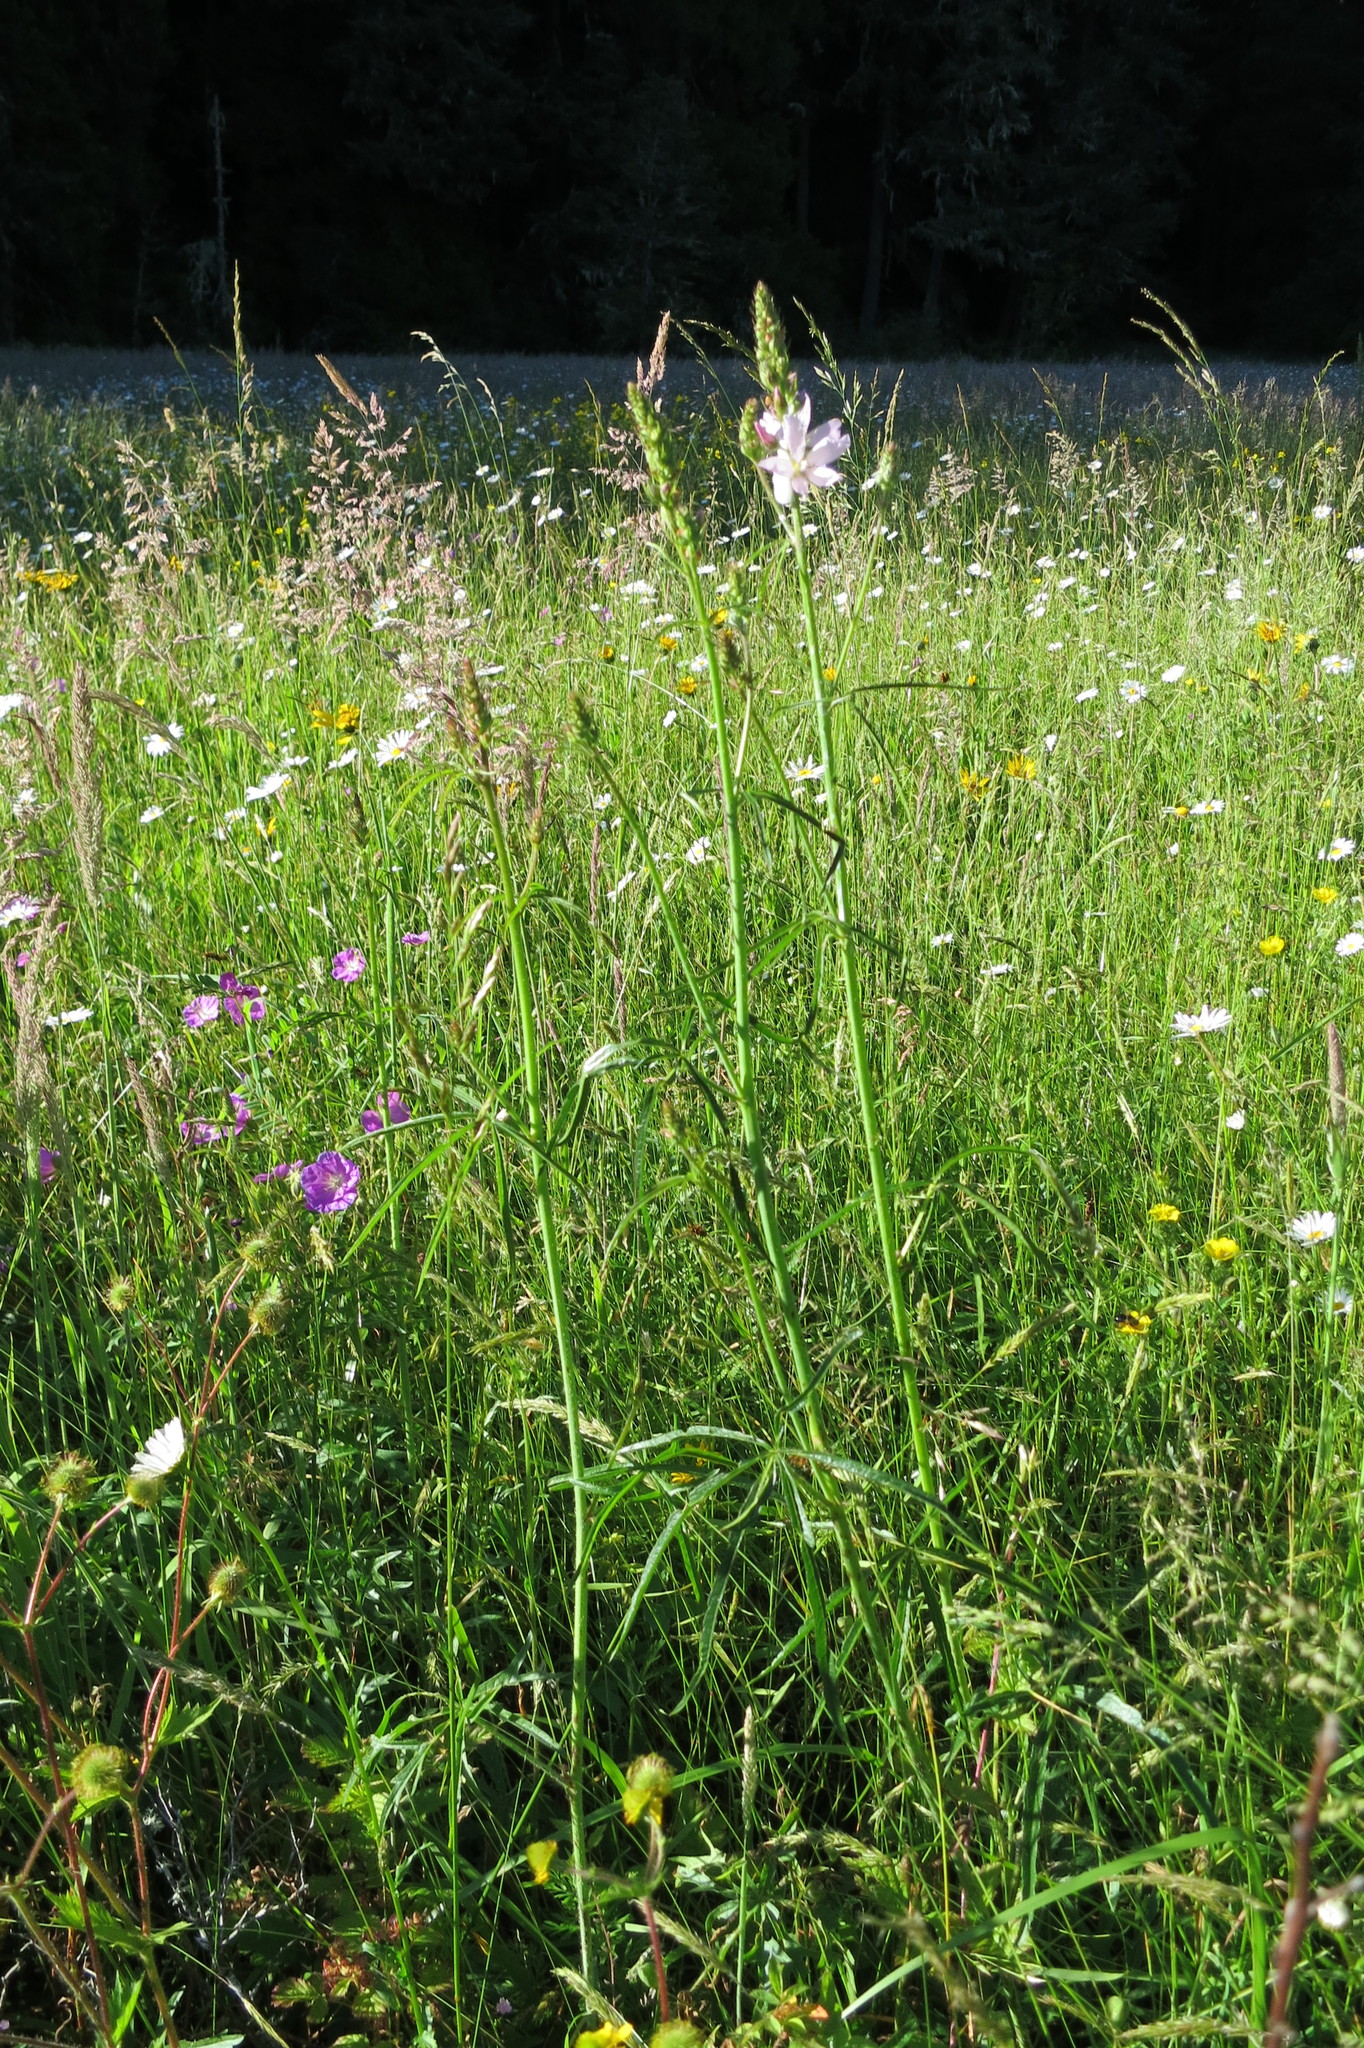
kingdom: Plantae
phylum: Tracheophyta
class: Magnoliopsida
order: Malvales
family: Malvaceae
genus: Sidalcea
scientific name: Sidalcea campestris
